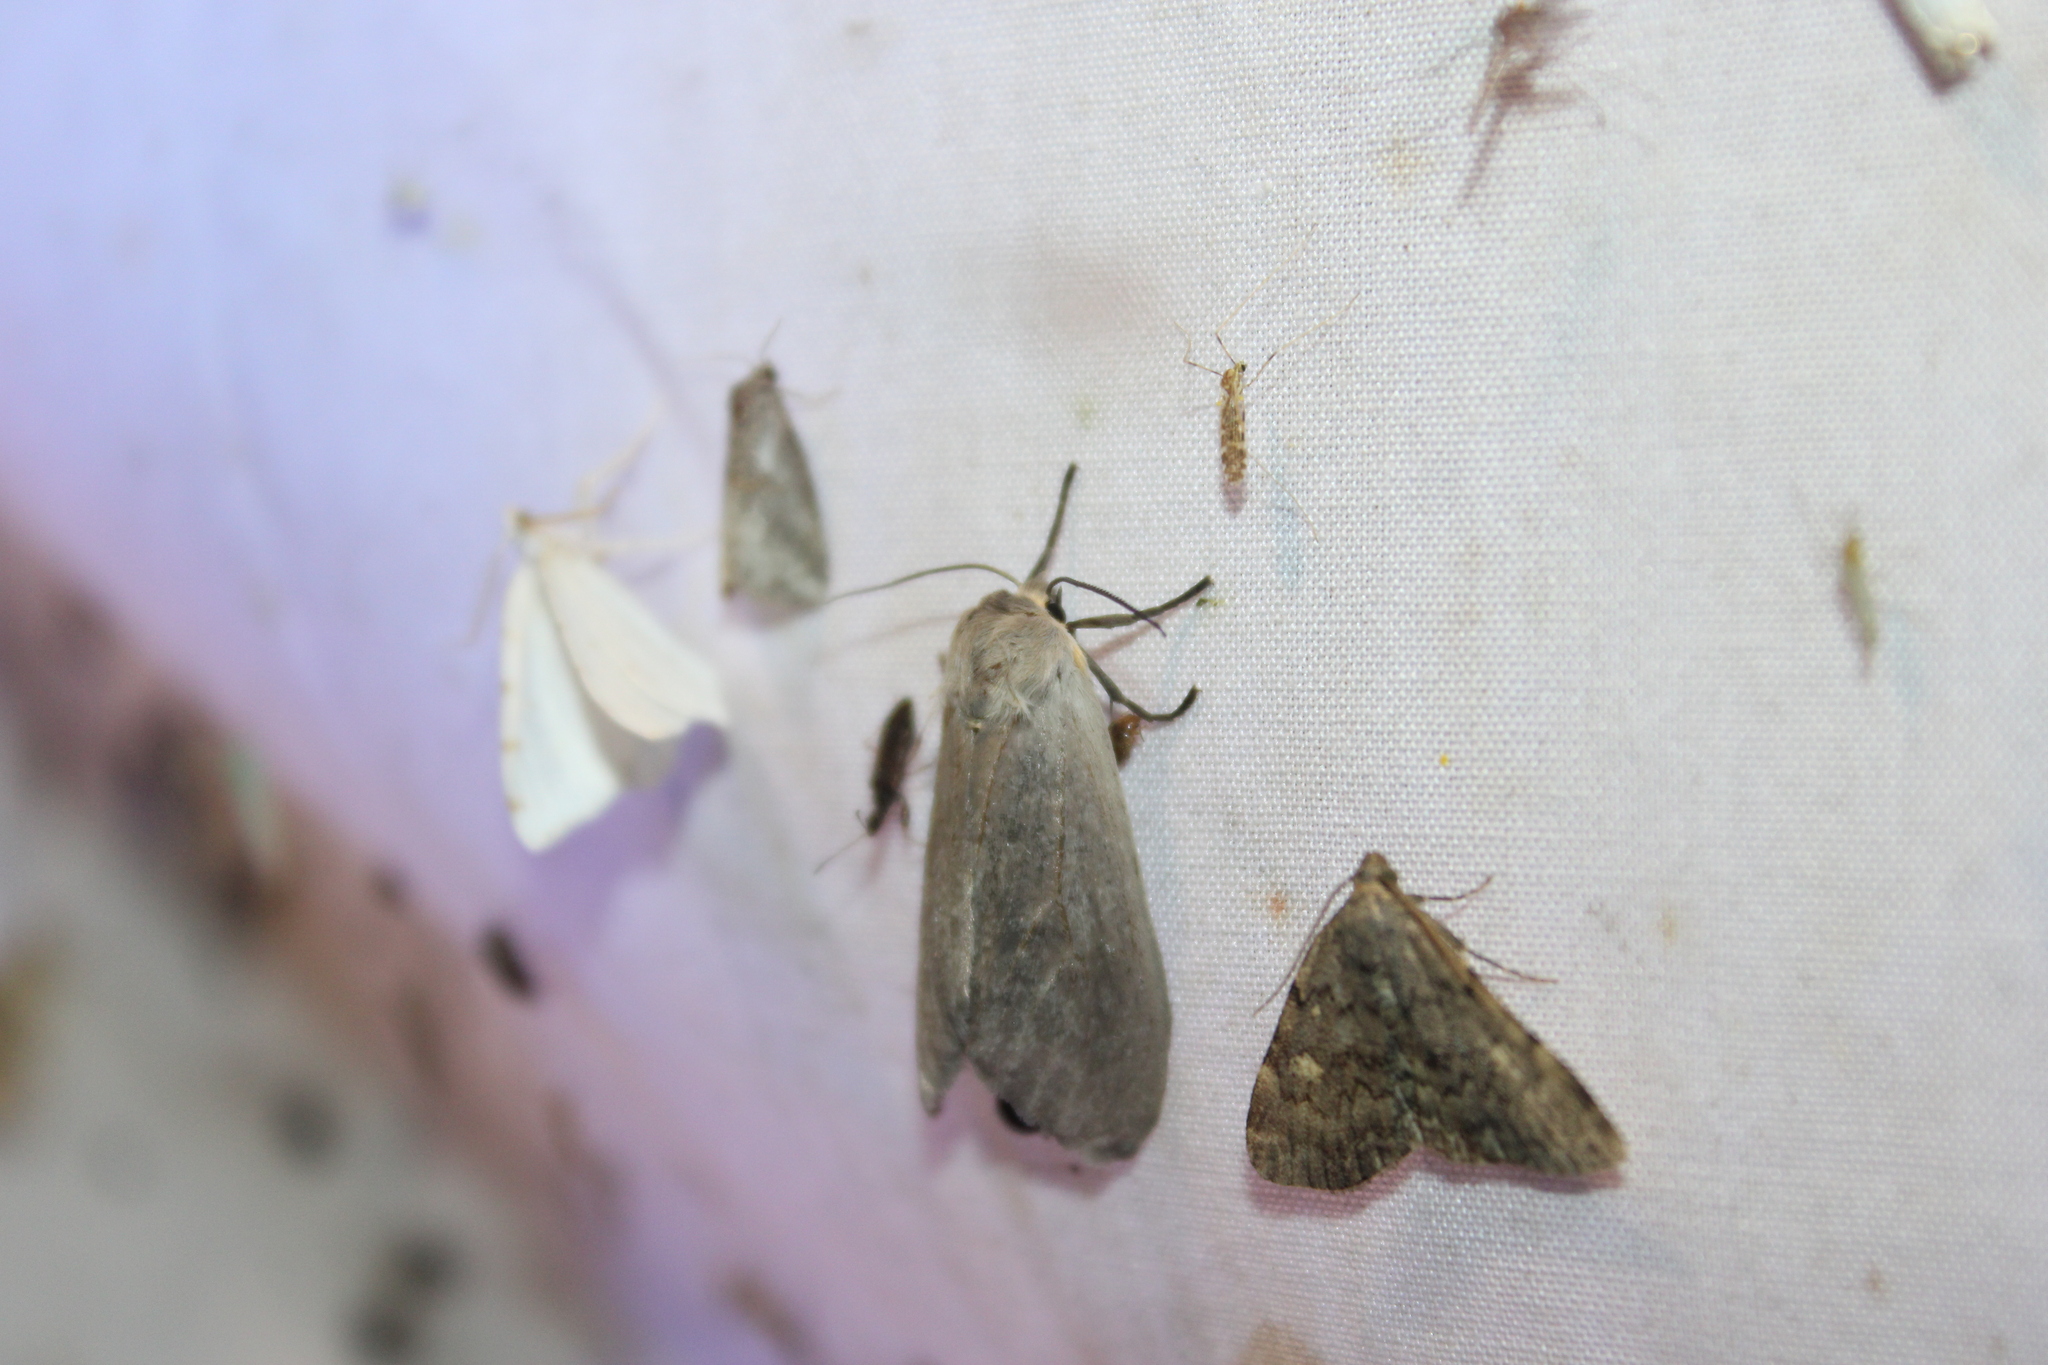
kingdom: Animalia
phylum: Arthropoda
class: Insecta
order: Lepidoptera
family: Erebidae
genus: Idia
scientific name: Idia aemula
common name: Common idia moth
